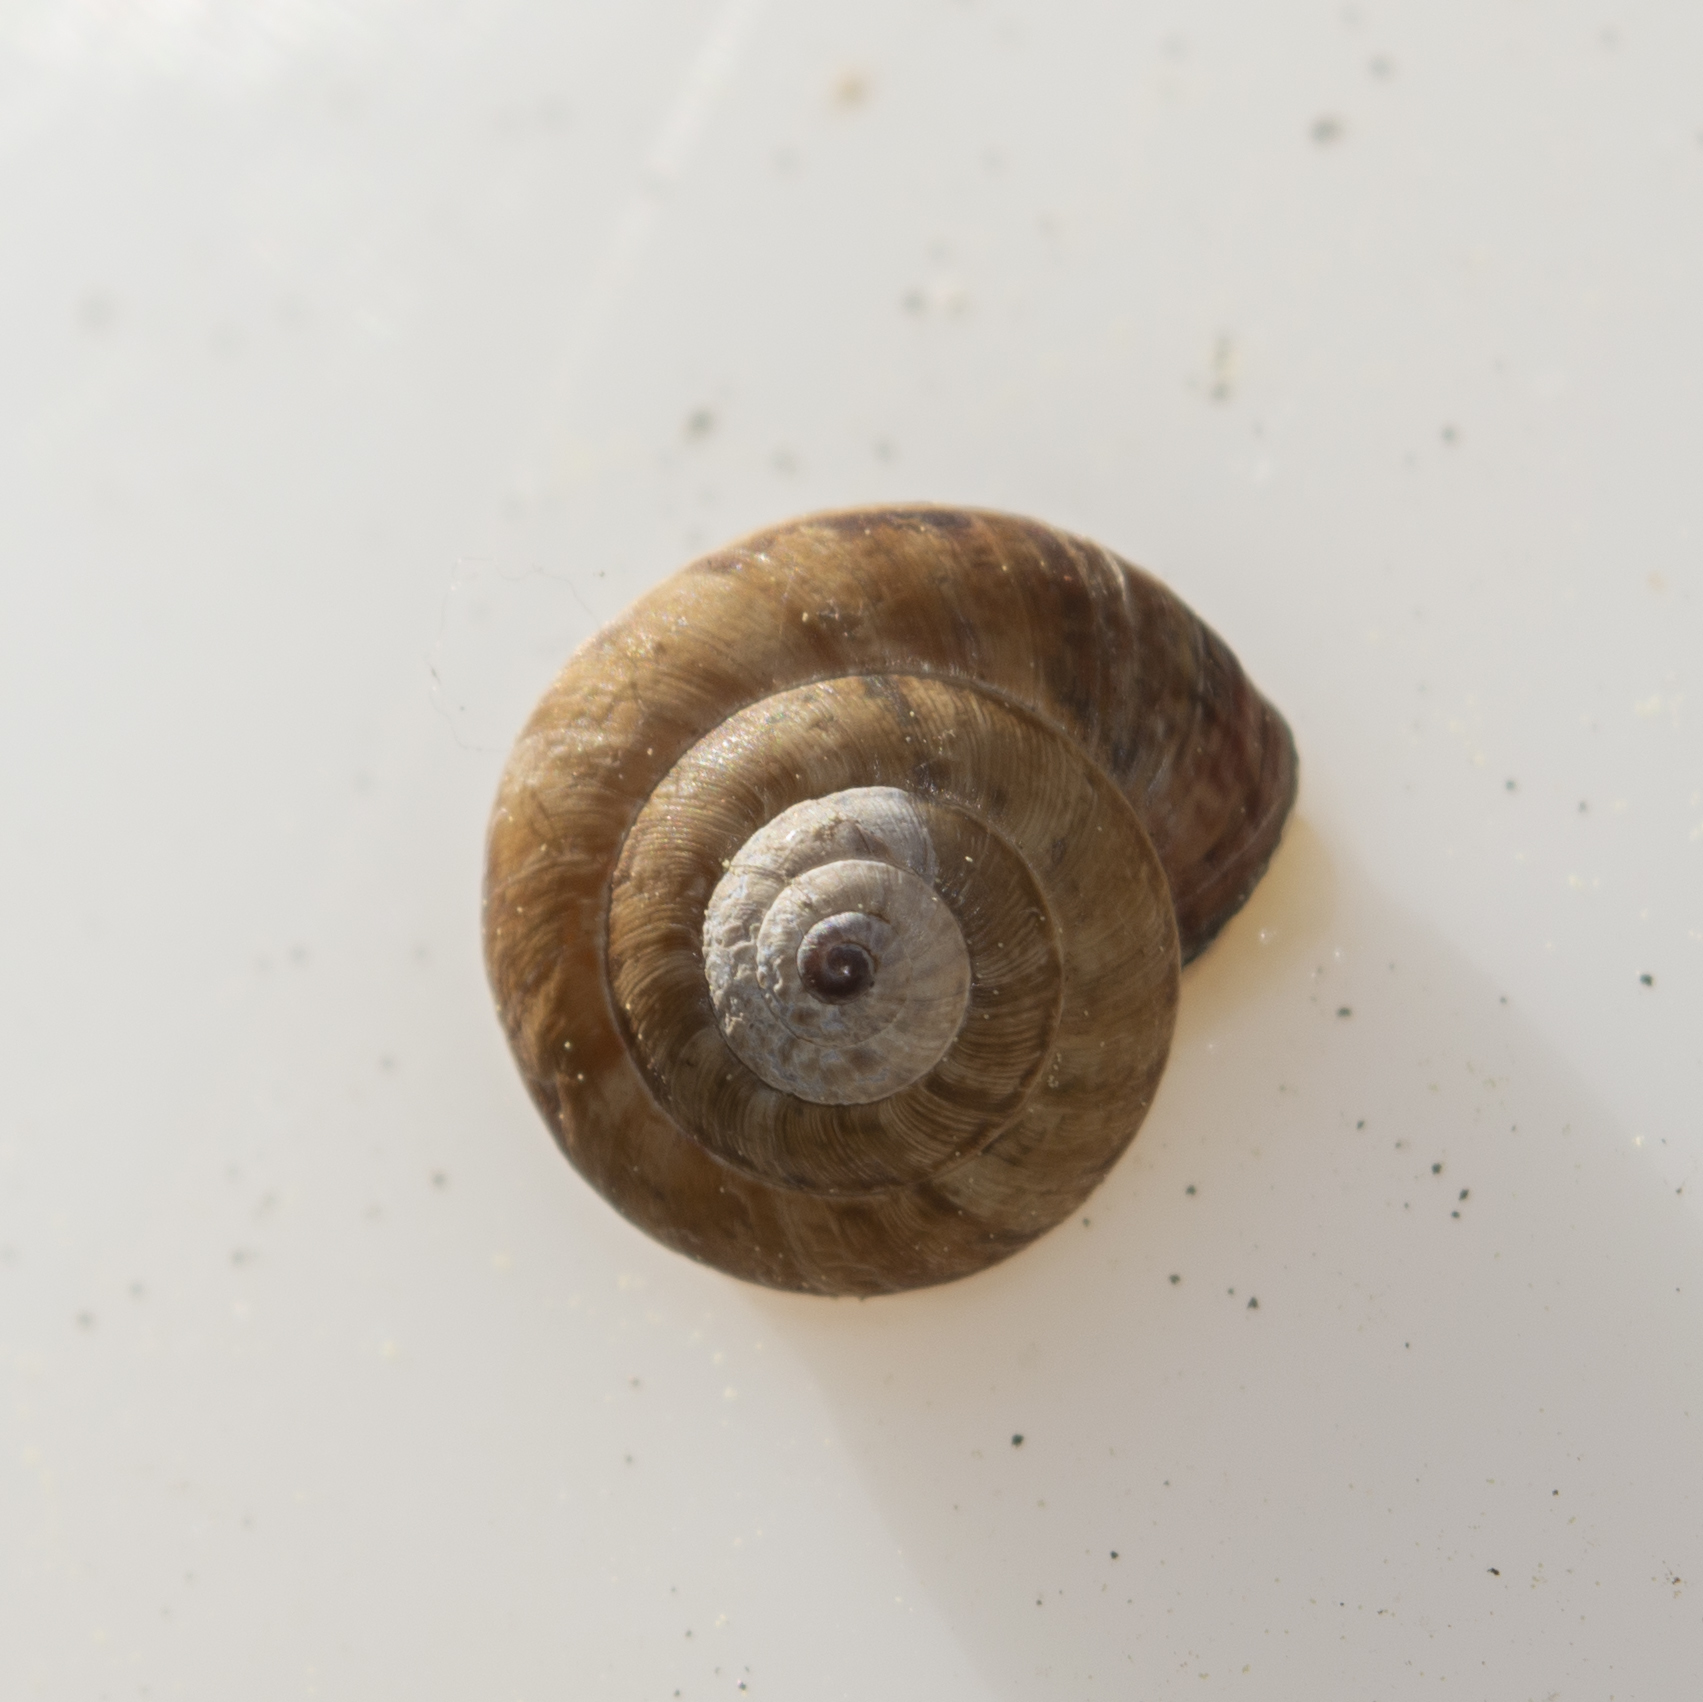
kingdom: Animalia
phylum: Mollusca
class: Gastropoda
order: Stylommatophora
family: Geomitridae
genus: Cernuella
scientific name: Cernuella virgata
